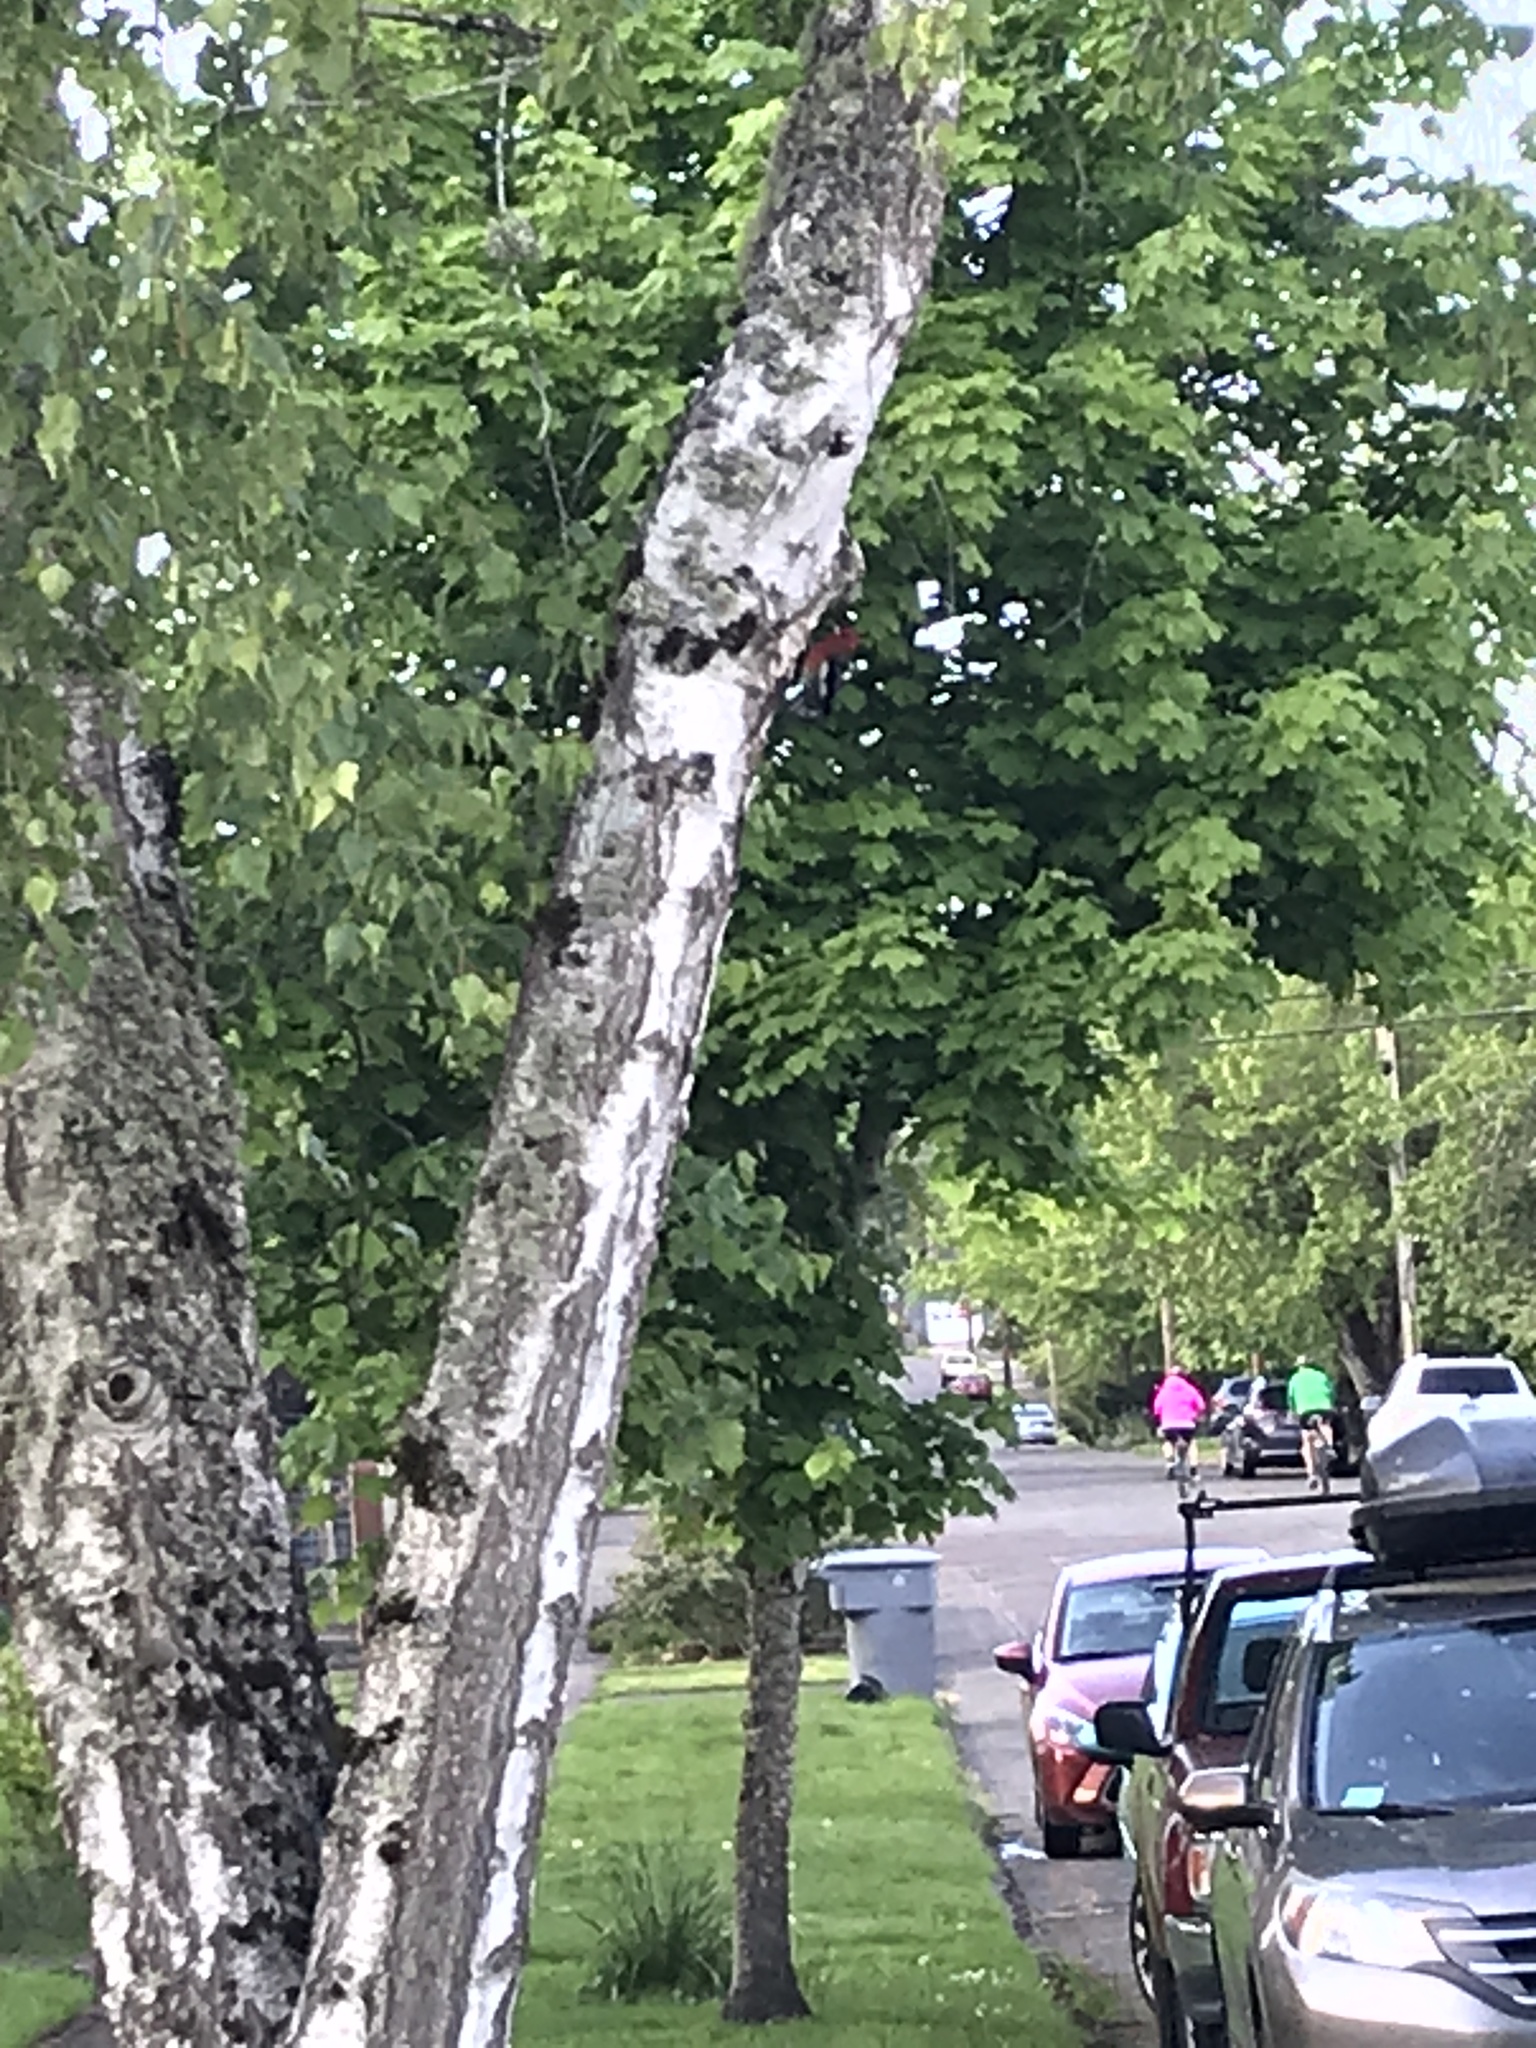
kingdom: Animalia
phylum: Chordata
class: Aves
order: Piciformes
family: Picidae
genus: Sphyrapicus
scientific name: Sphyrapicus ruber
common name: Red-breasted sapsucker
